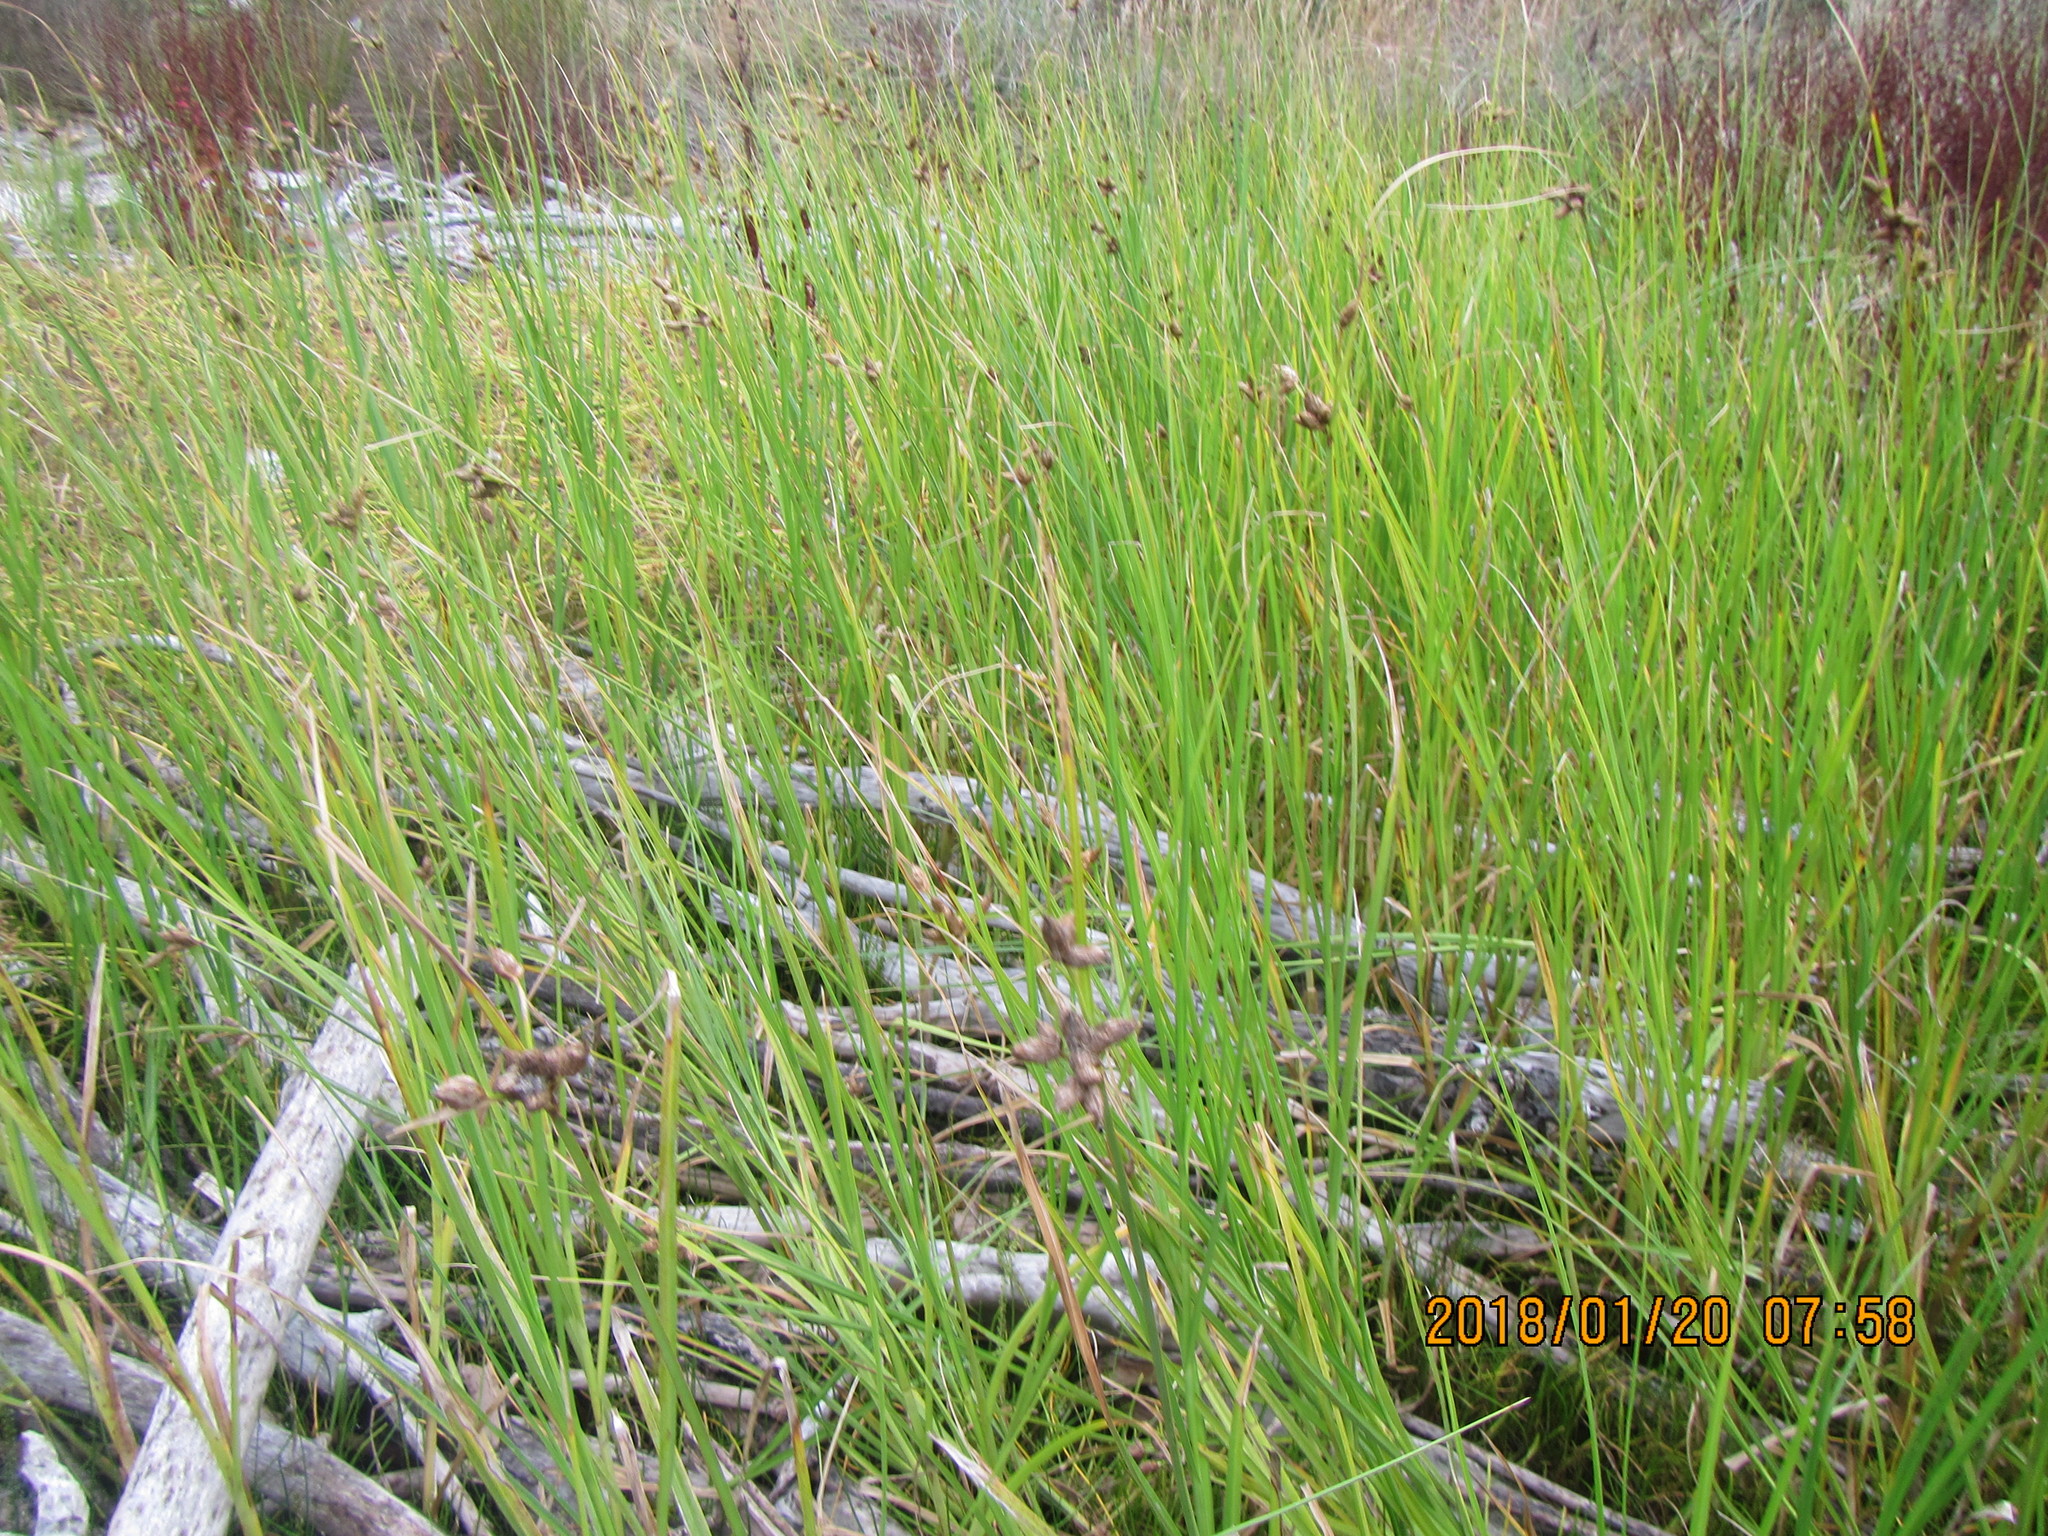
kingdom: Plantae
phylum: Tracheophyta
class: Liliopsida
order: Poales
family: Cyperaceae
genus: Schoenoplectus
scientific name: Schoenoplectus pungens
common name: Sharp club-rush
